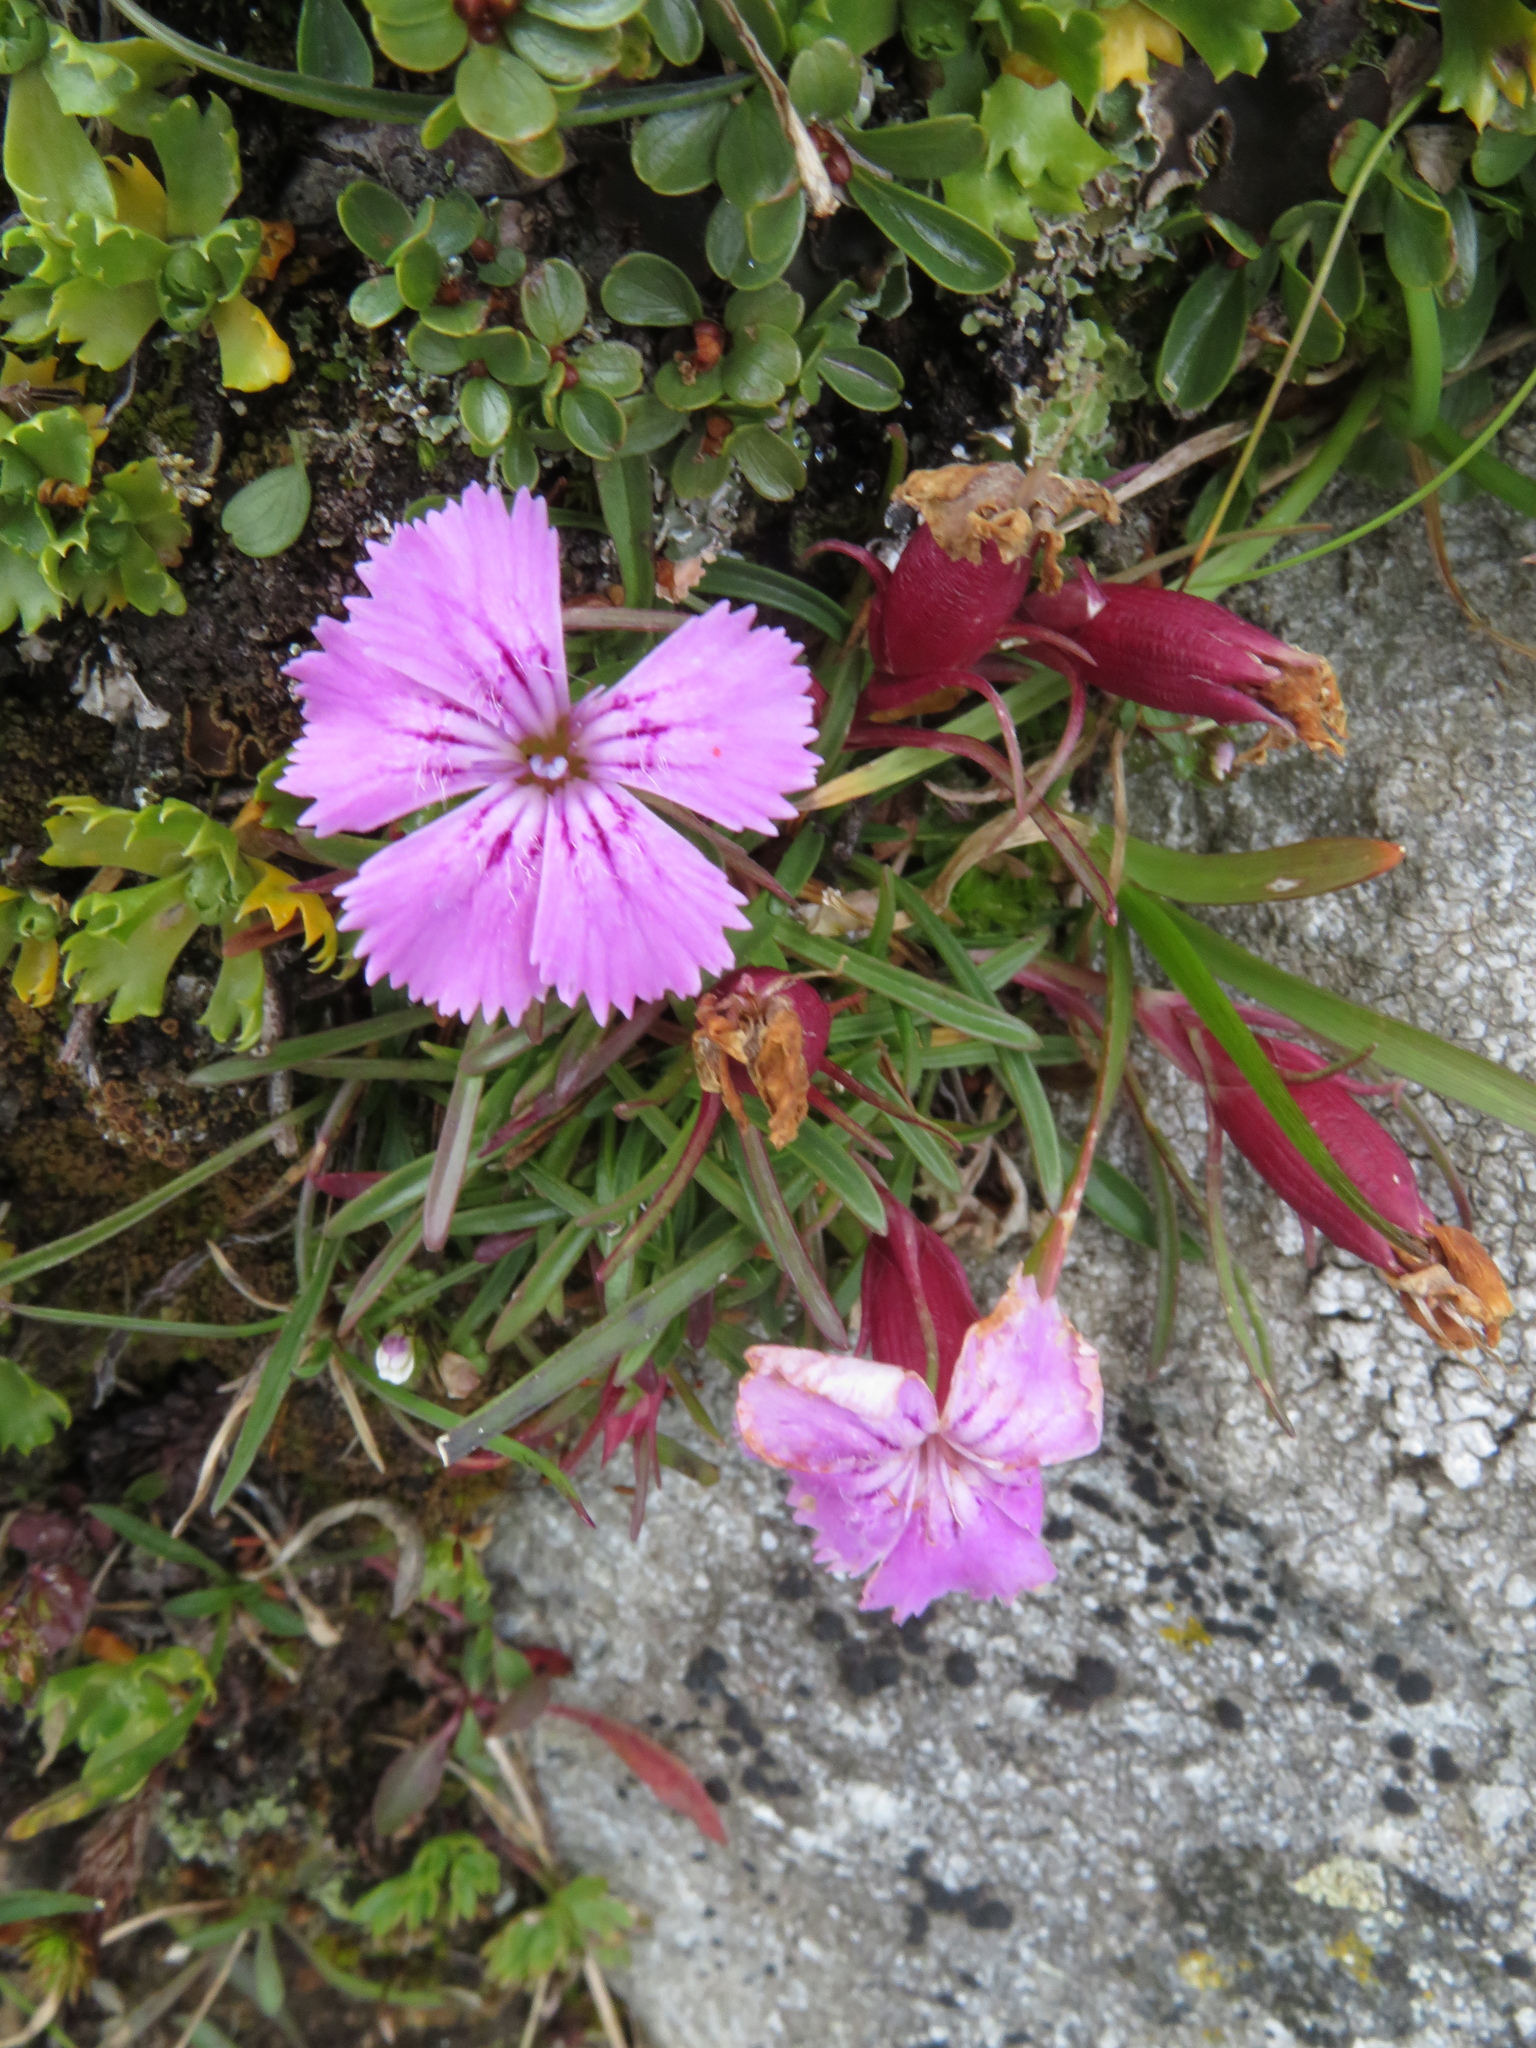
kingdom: Plantae
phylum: Tracheophyta
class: Magnoliopsida
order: Caryophyllales
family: Caryophyllaceae
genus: Dianthus
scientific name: Dianthus glacialis
